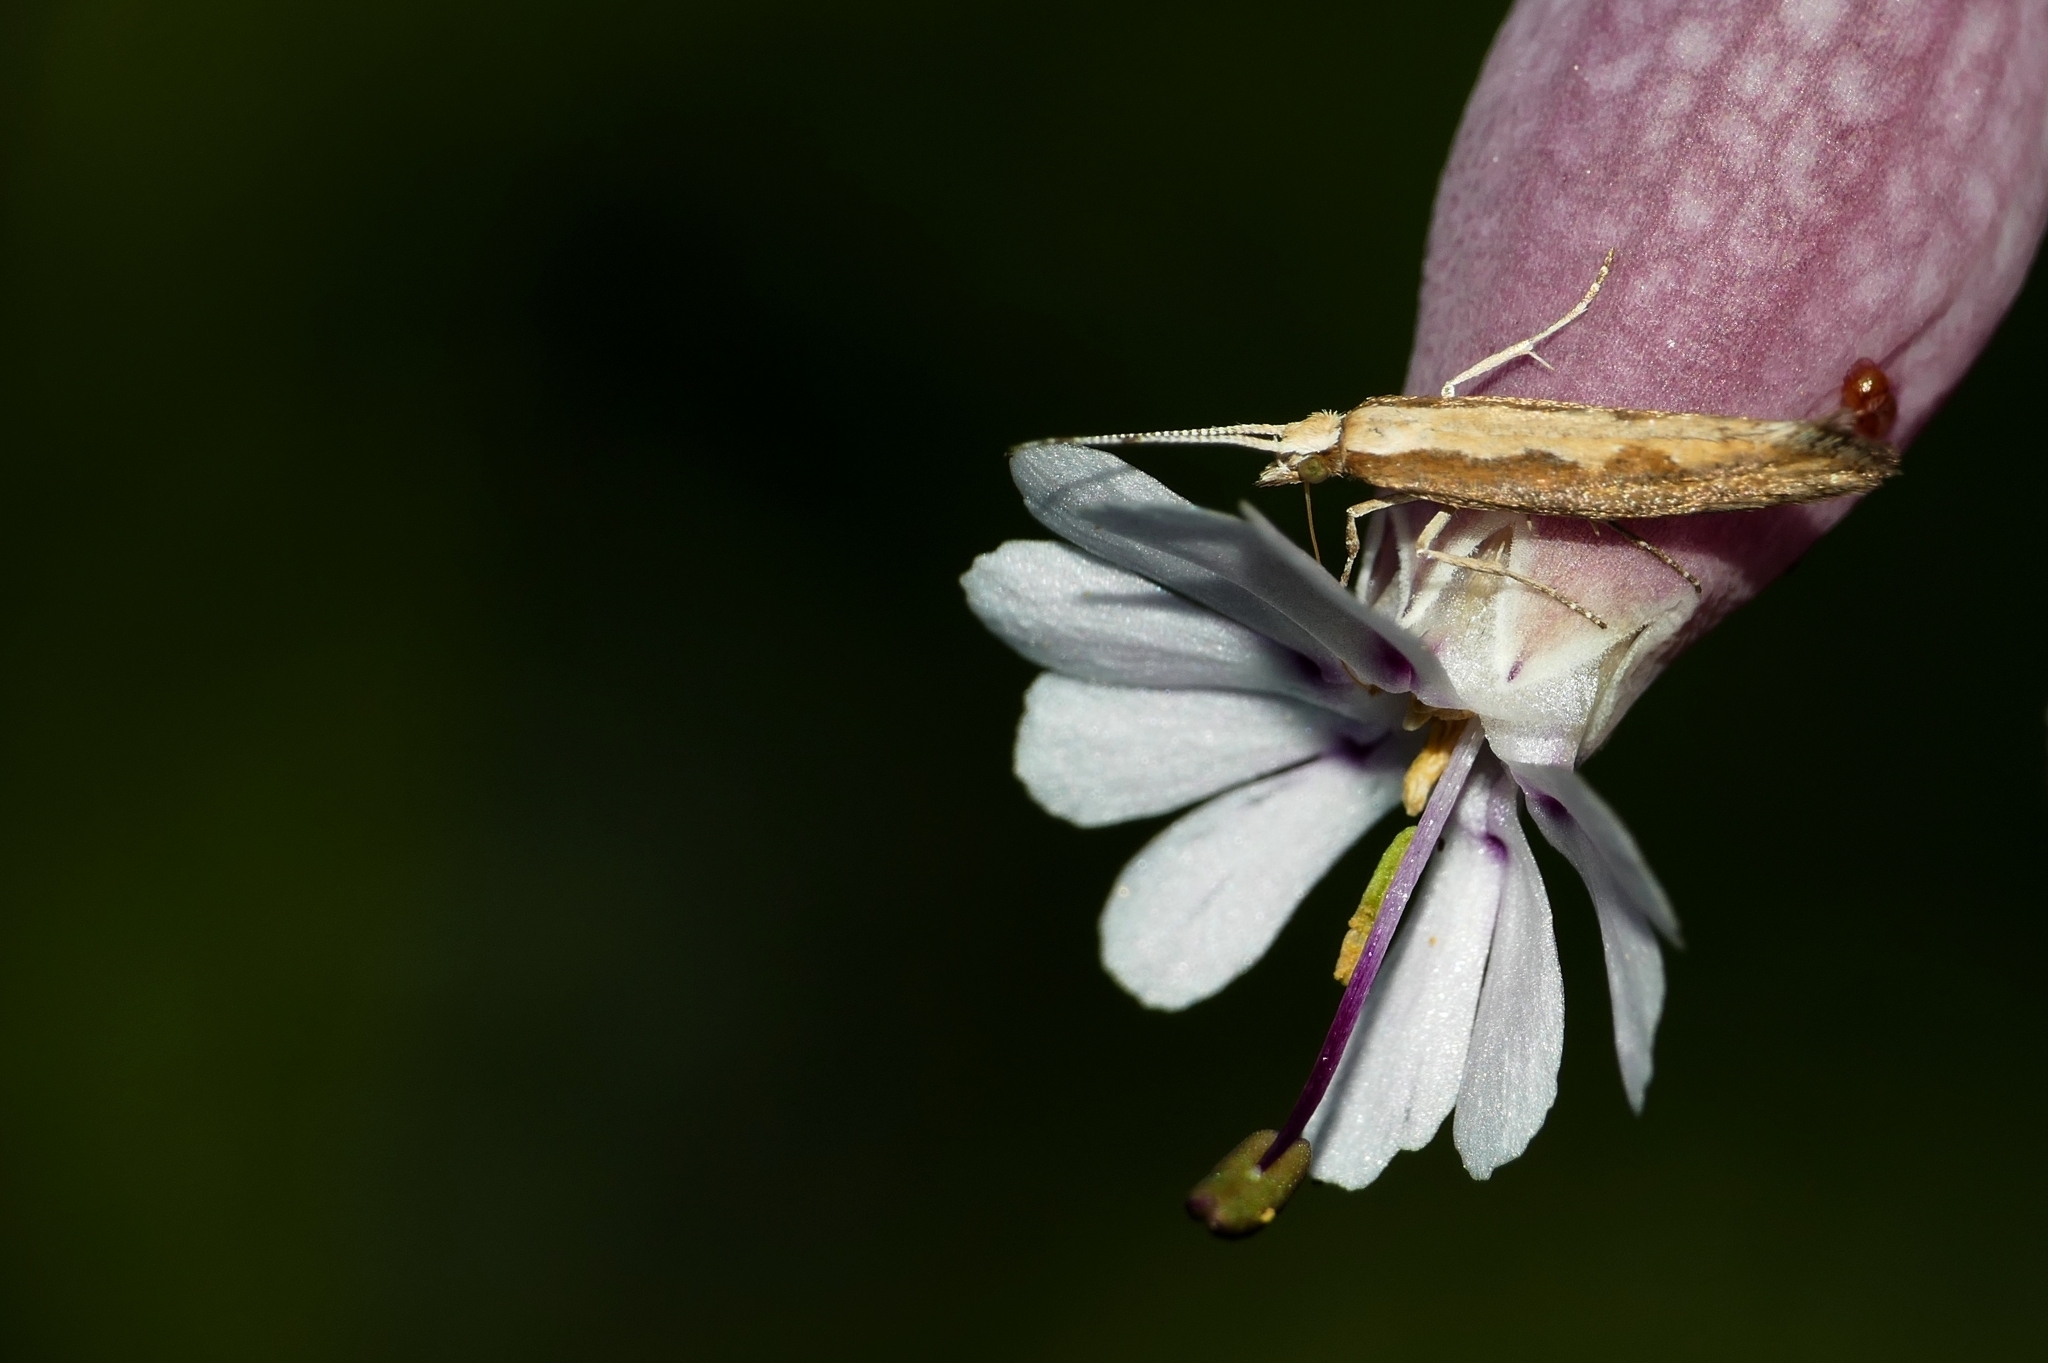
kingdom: Animalia
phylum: Arthropoda
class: Insecta
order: Lepidoptera
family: Plutellidae
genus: Plutella
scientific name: Plutella xylostella
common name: Diamond-back moth
